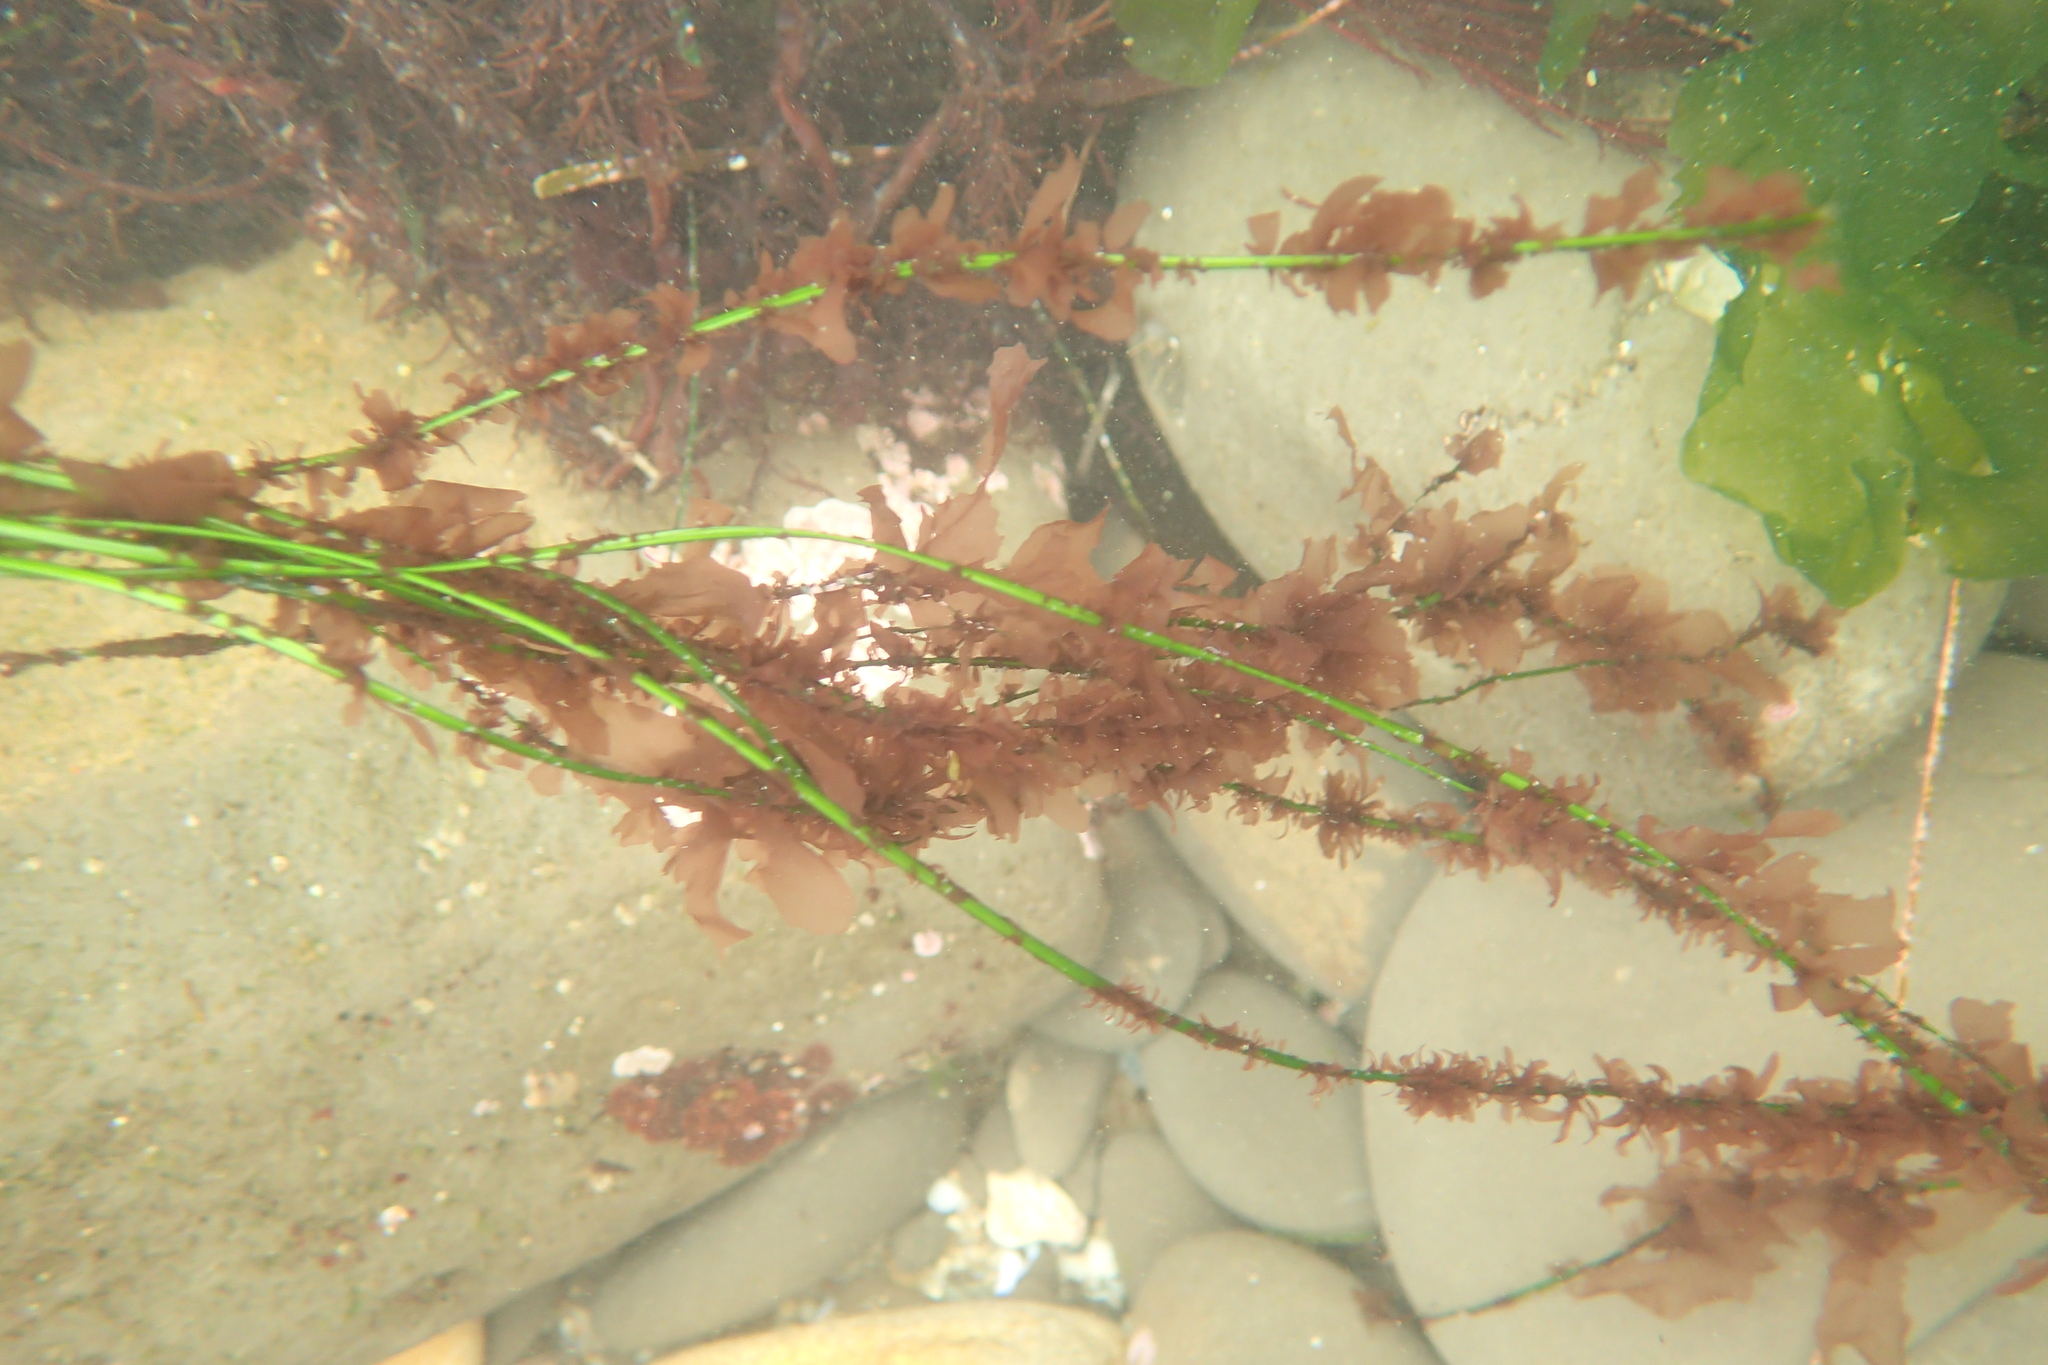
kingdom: Plantae
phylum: Rhodophyta
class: Compsopogonophyceae
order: Erythropeltidales
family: Erythrotrichiaceae
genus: Smithora
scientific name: Smithora naiadum
